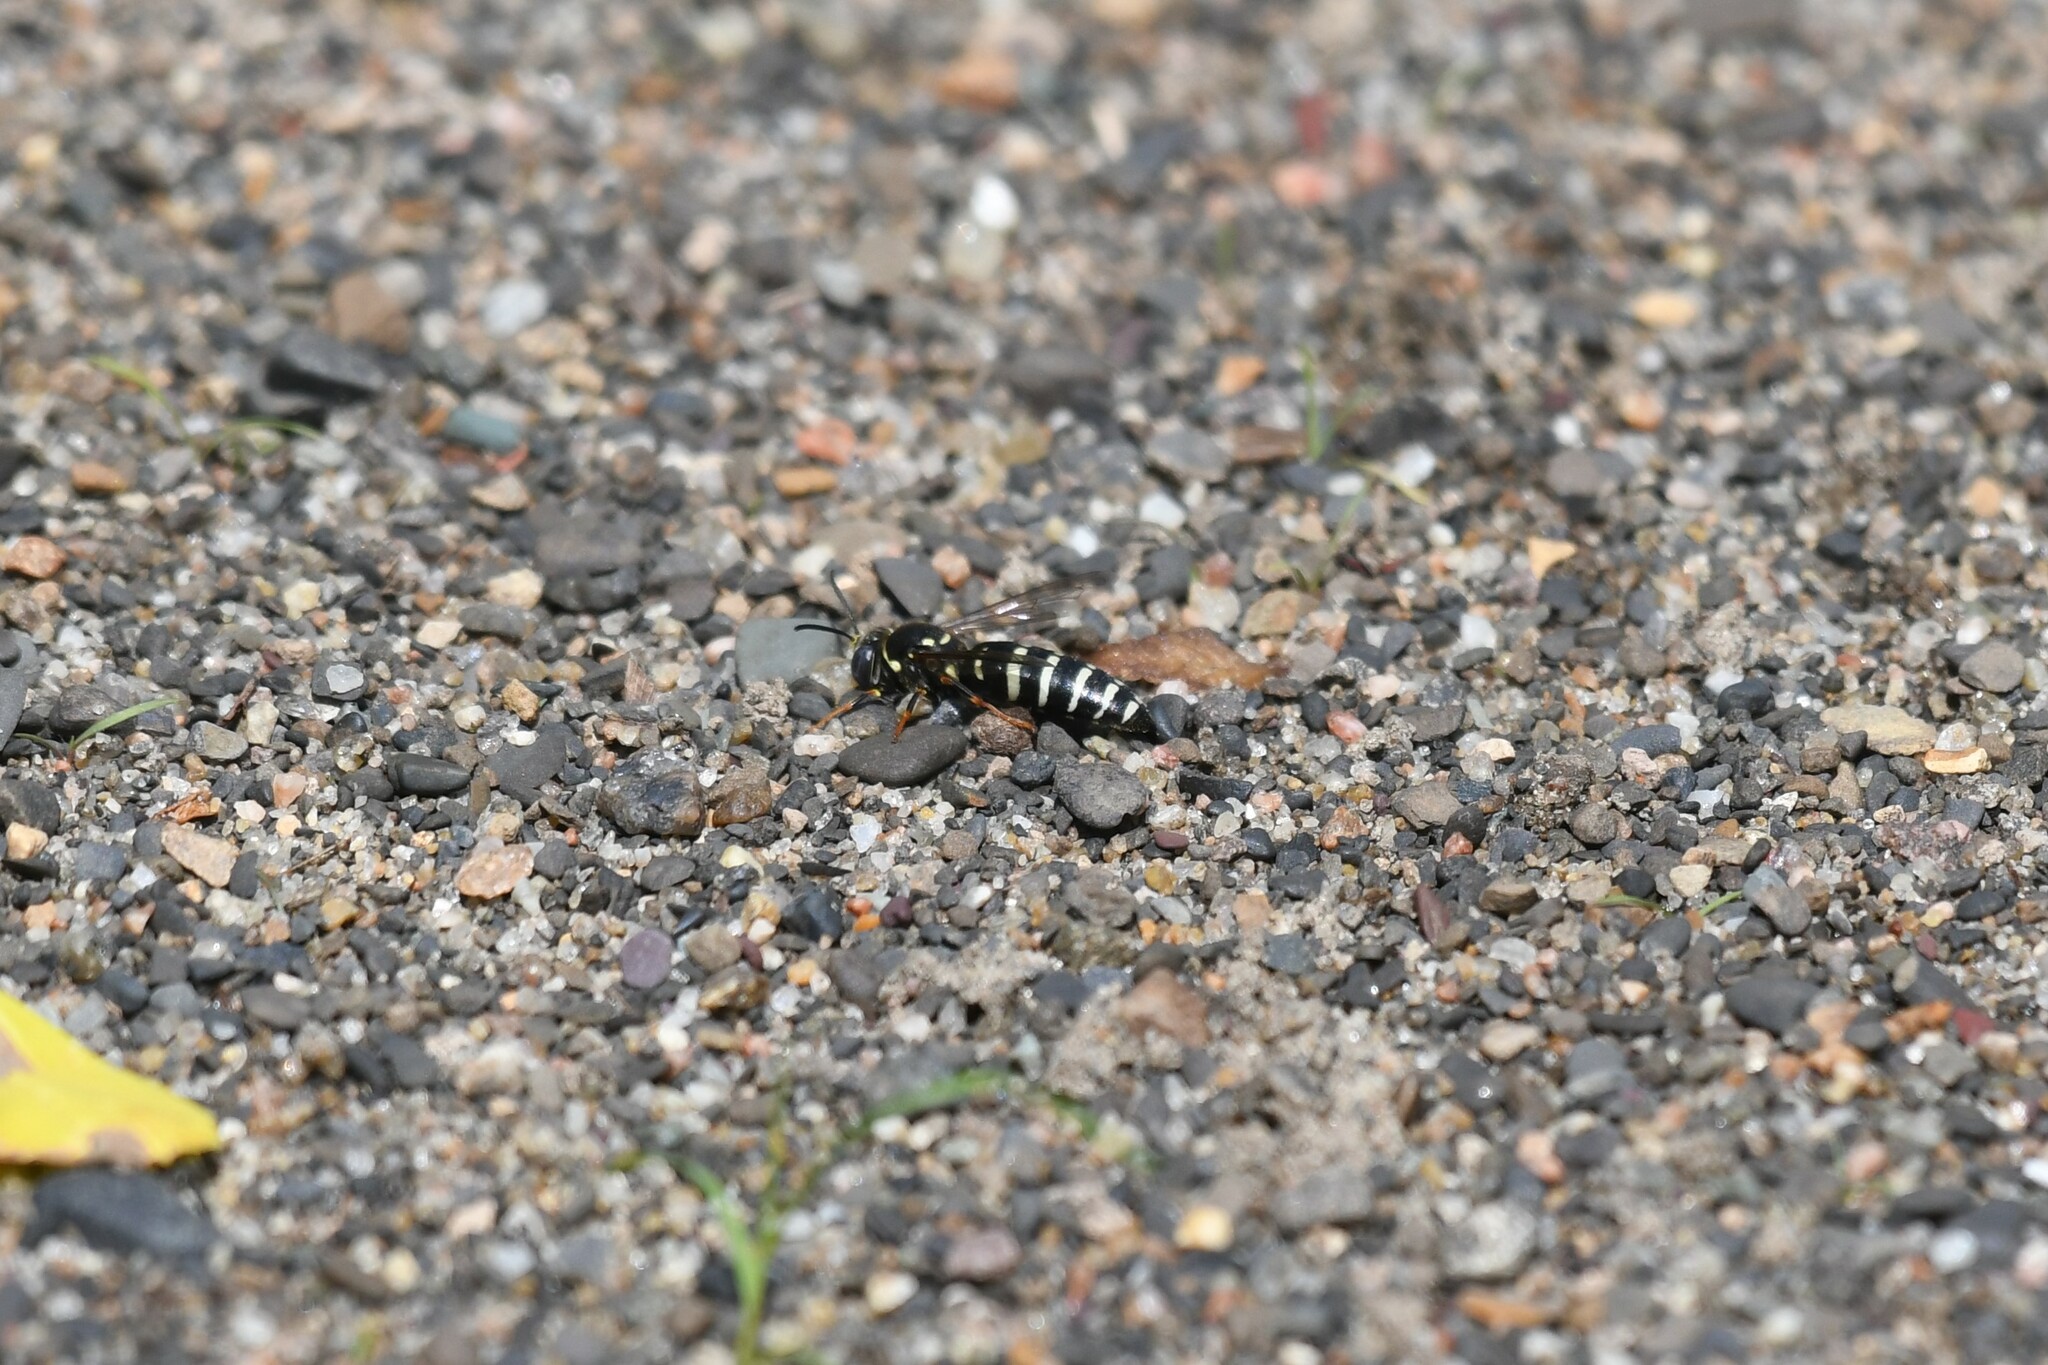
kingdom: Animalia
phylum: Arthropoda
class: Insecta
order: Hymenoptera
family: Crabronidae
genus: Bicyrtes
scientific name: Bicyrtes ventralis
